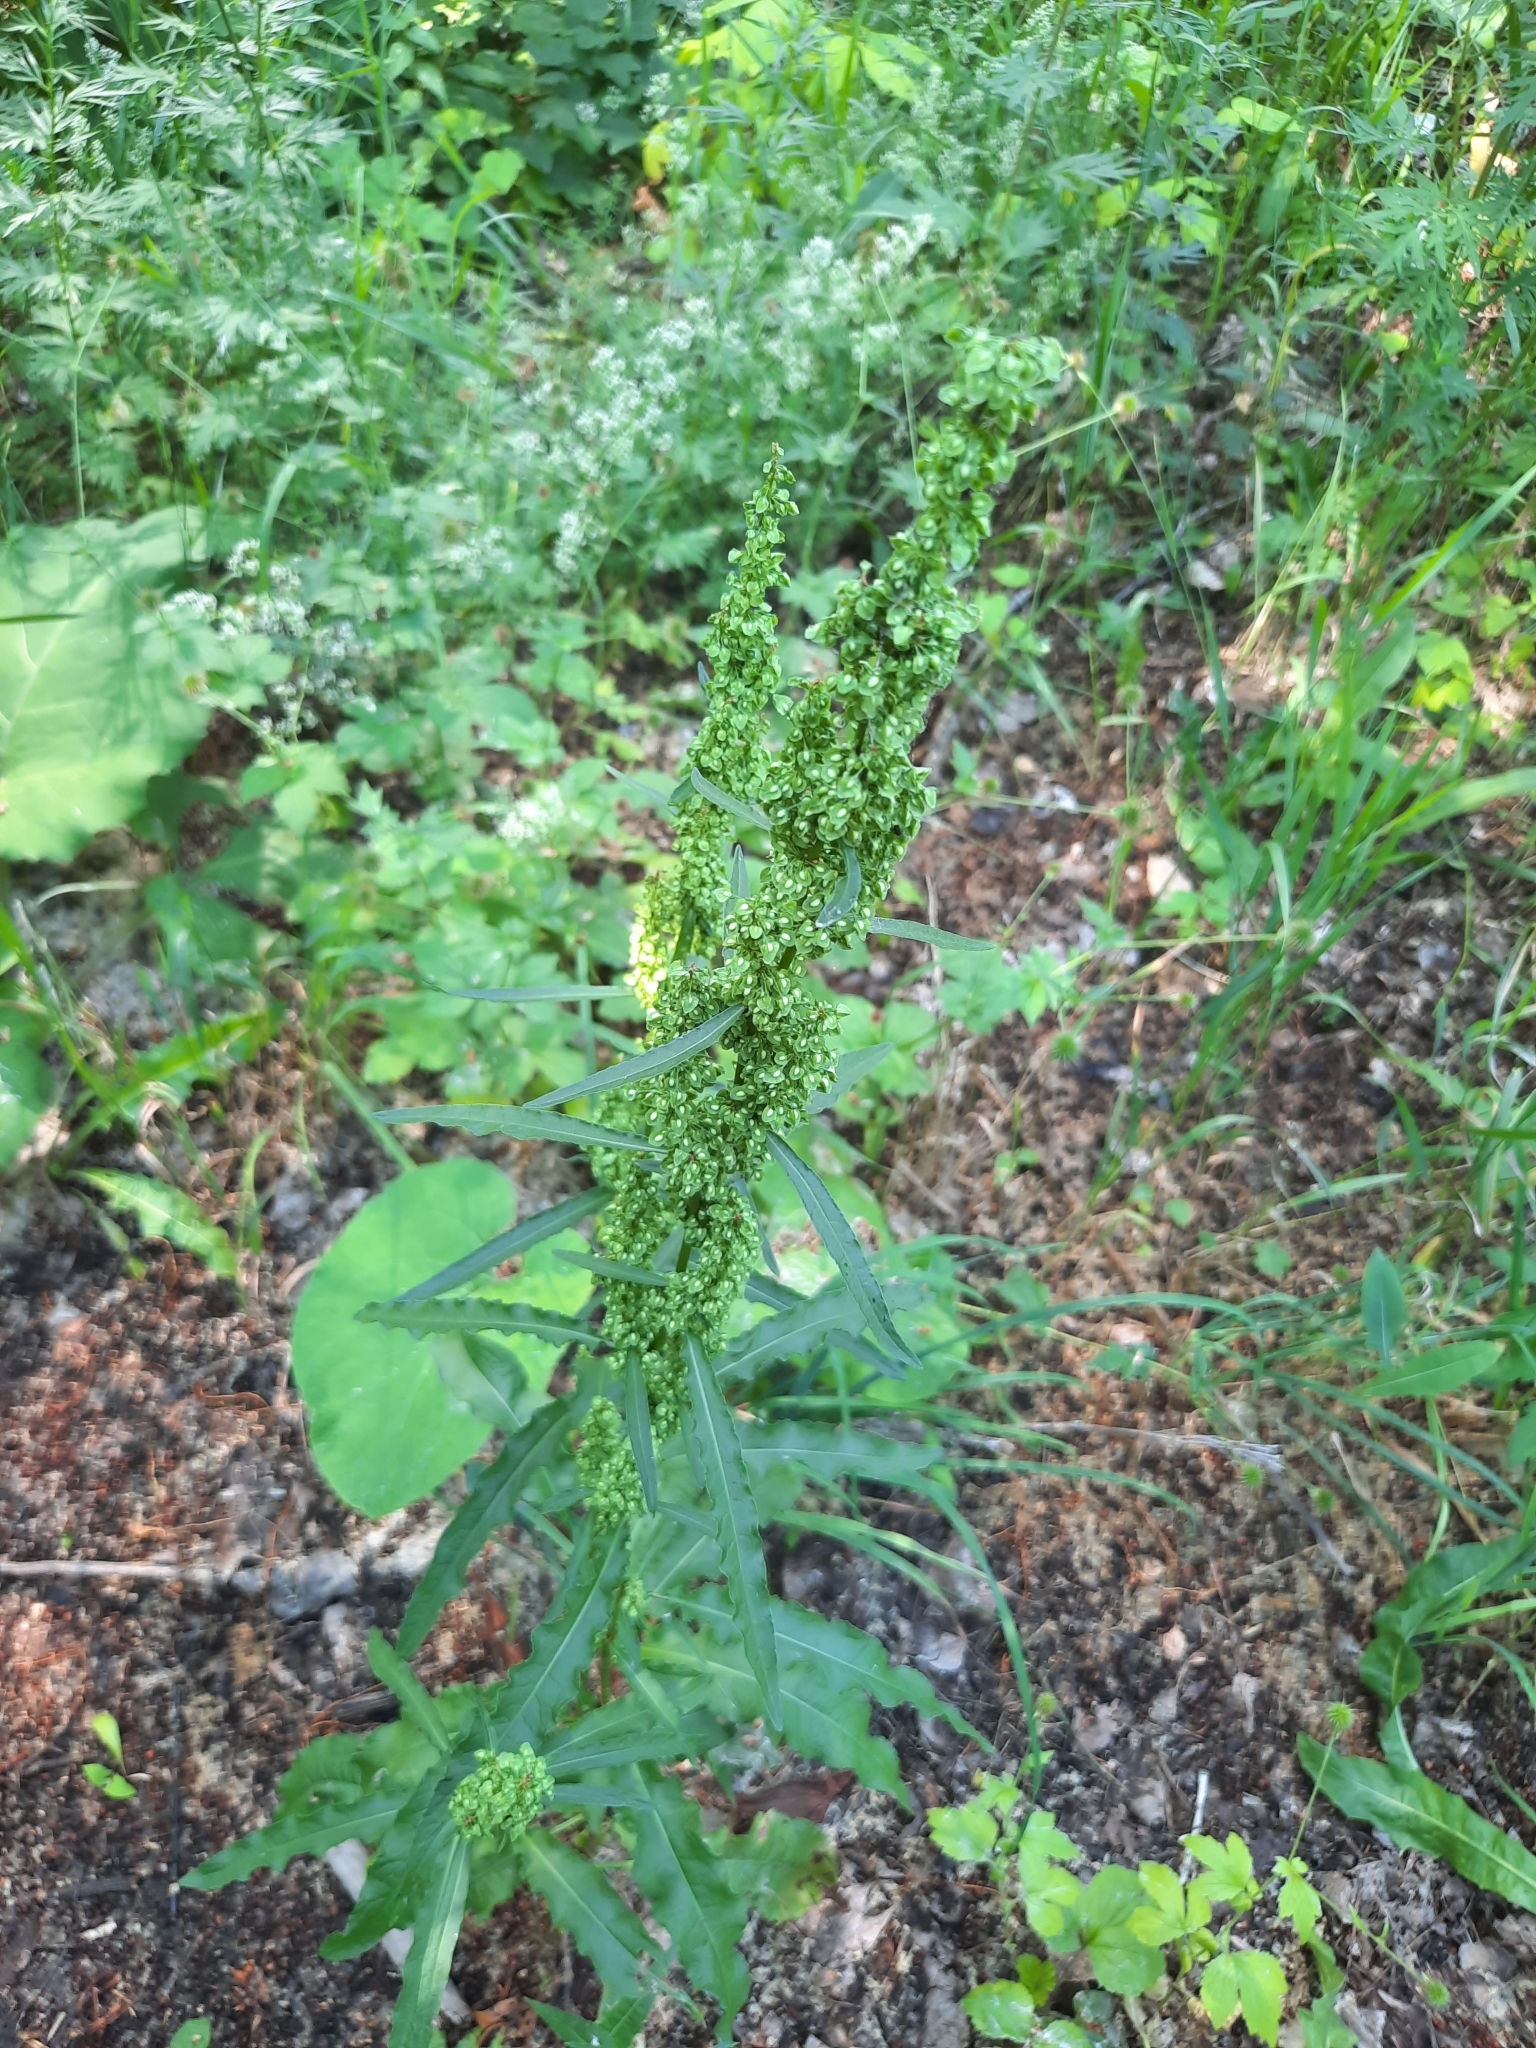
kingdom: Plantae
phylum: Tracheophyta
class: Magnoliopsida
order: Caryophyllales
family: Polygonaceae
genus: Rumex
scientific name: Rumex crispus
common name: Curled dock
